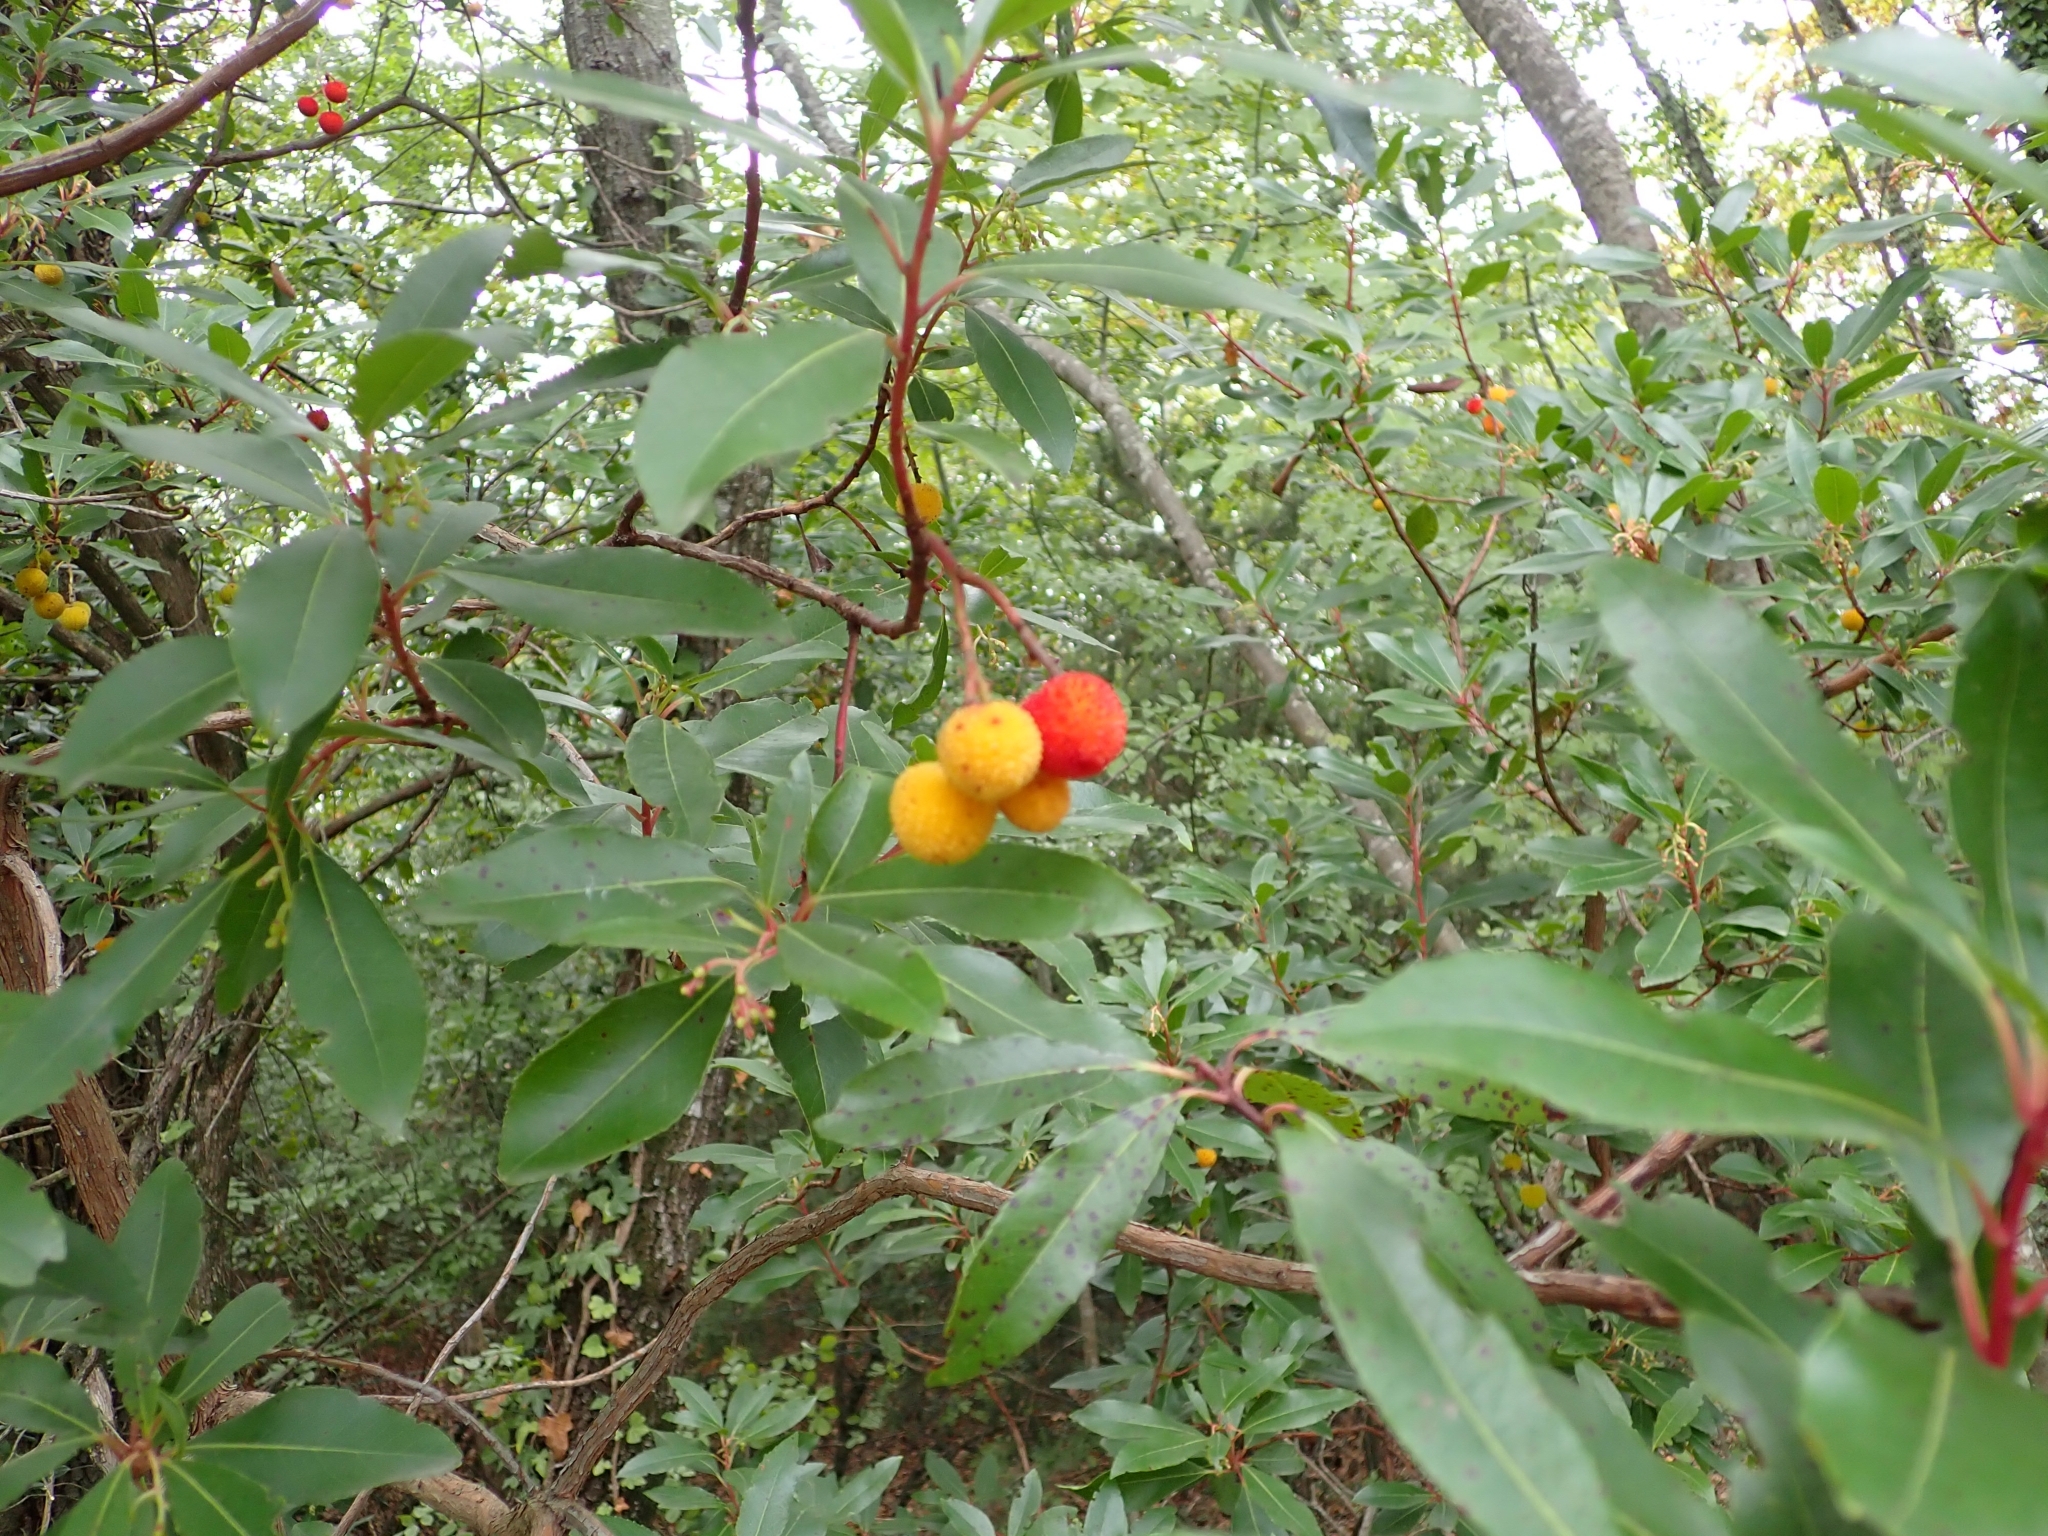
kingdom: Plantae
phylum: Tracheophyta
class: Magnoliopsida
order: Ericales
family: Ericaceae
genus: Arbutus
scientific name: Arbutus unedo
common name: Strawberry-tree
